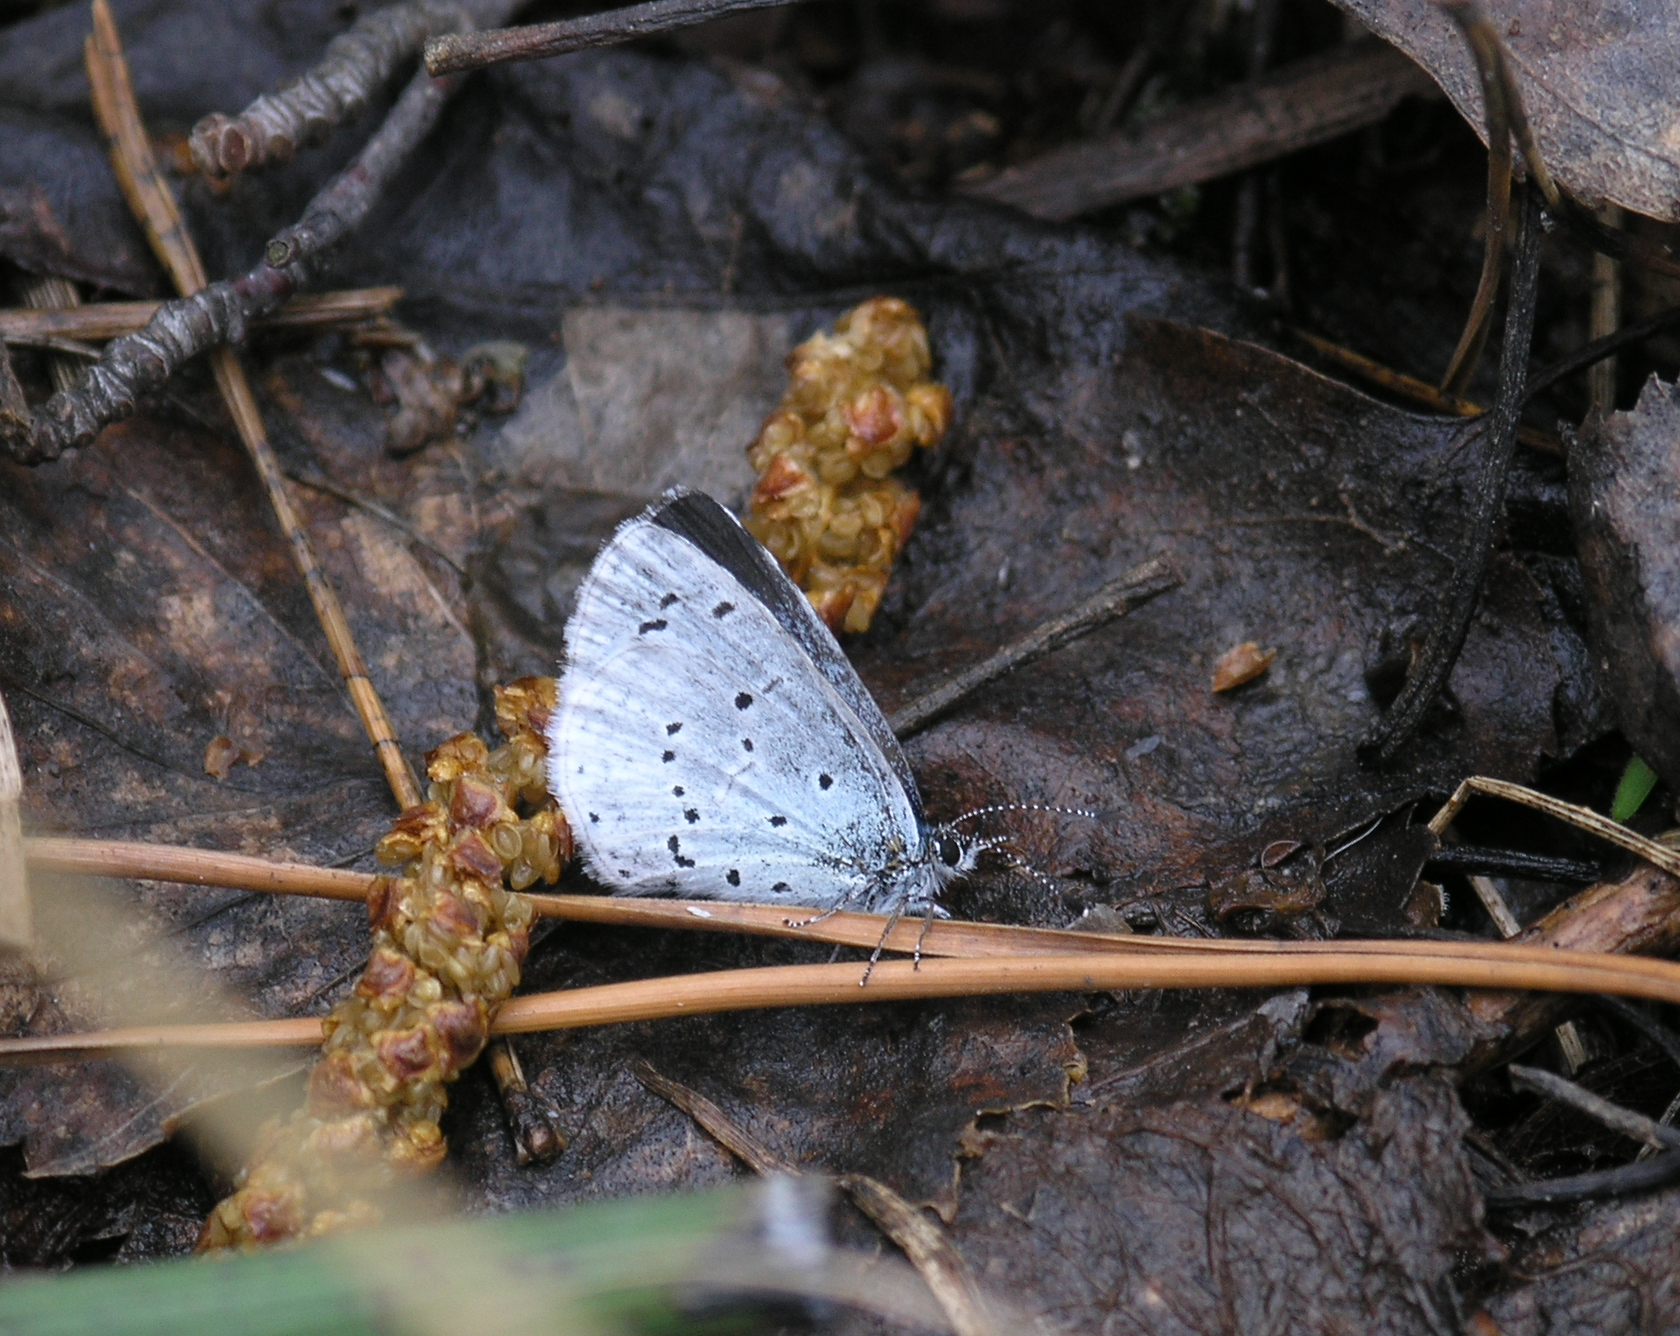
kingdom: Animalia
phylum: Arthropoda
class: Insecta
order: Lepidoptera
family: Lycaenidae
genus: Celastrina
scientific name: Celastrina argiolus
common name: Holly blue
